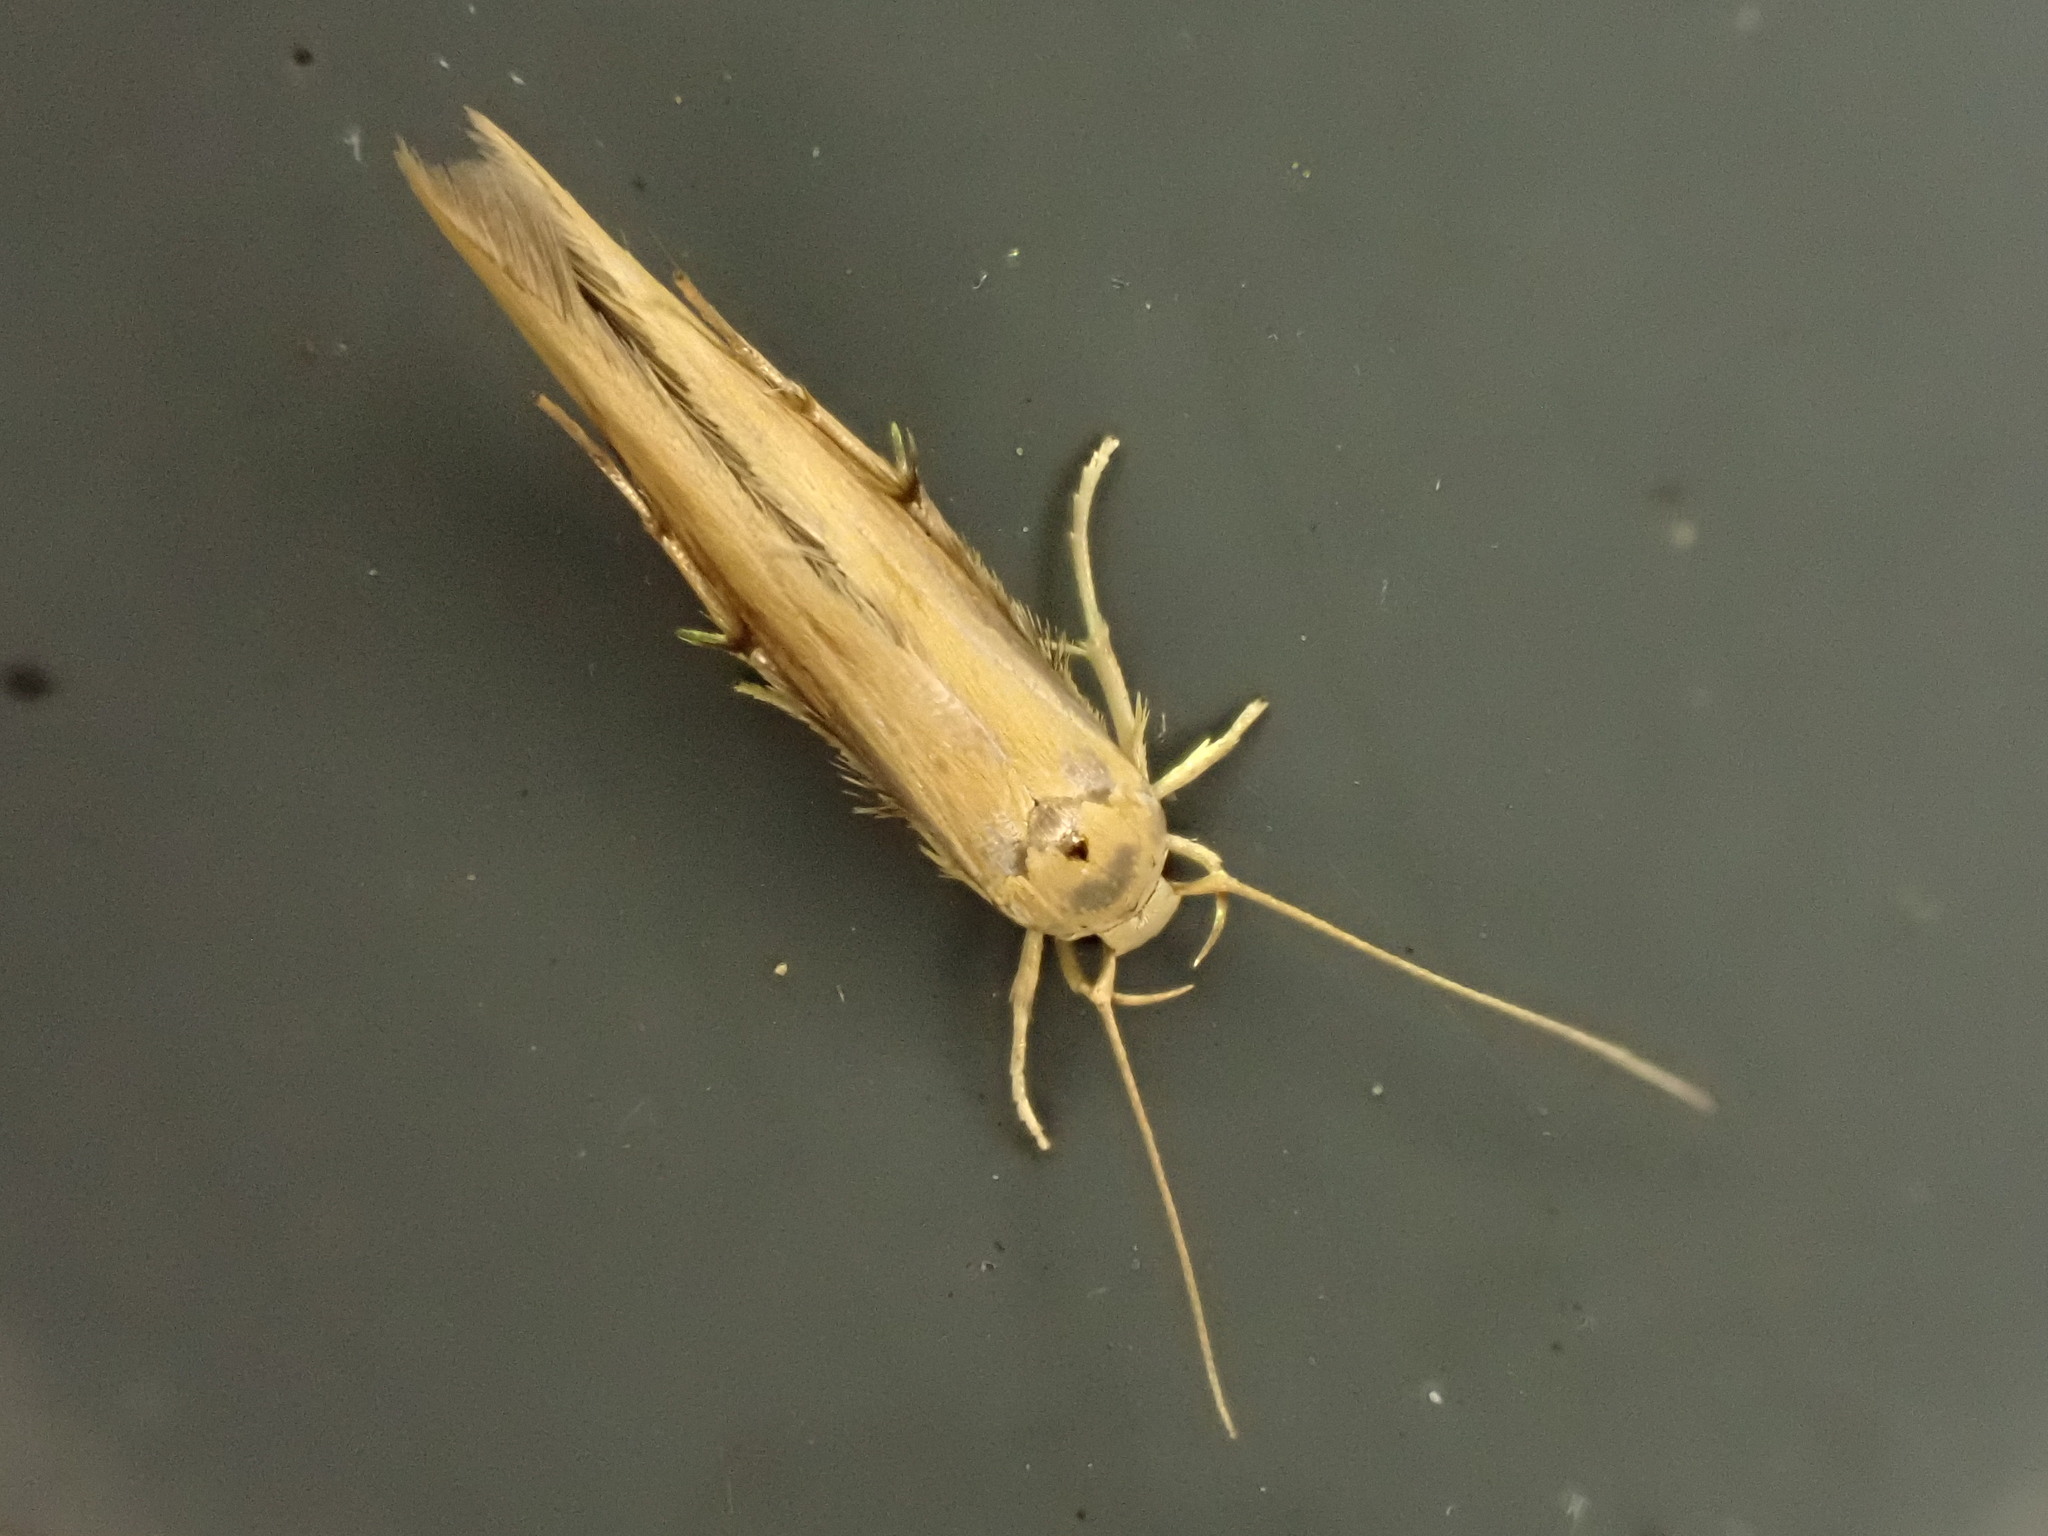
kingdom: Animalia
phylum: Arthropoda
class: Insecta
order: Lepidoptera
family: Stathmopodidae
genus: Stathmopoda
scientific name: Stathmopoda skelloni
